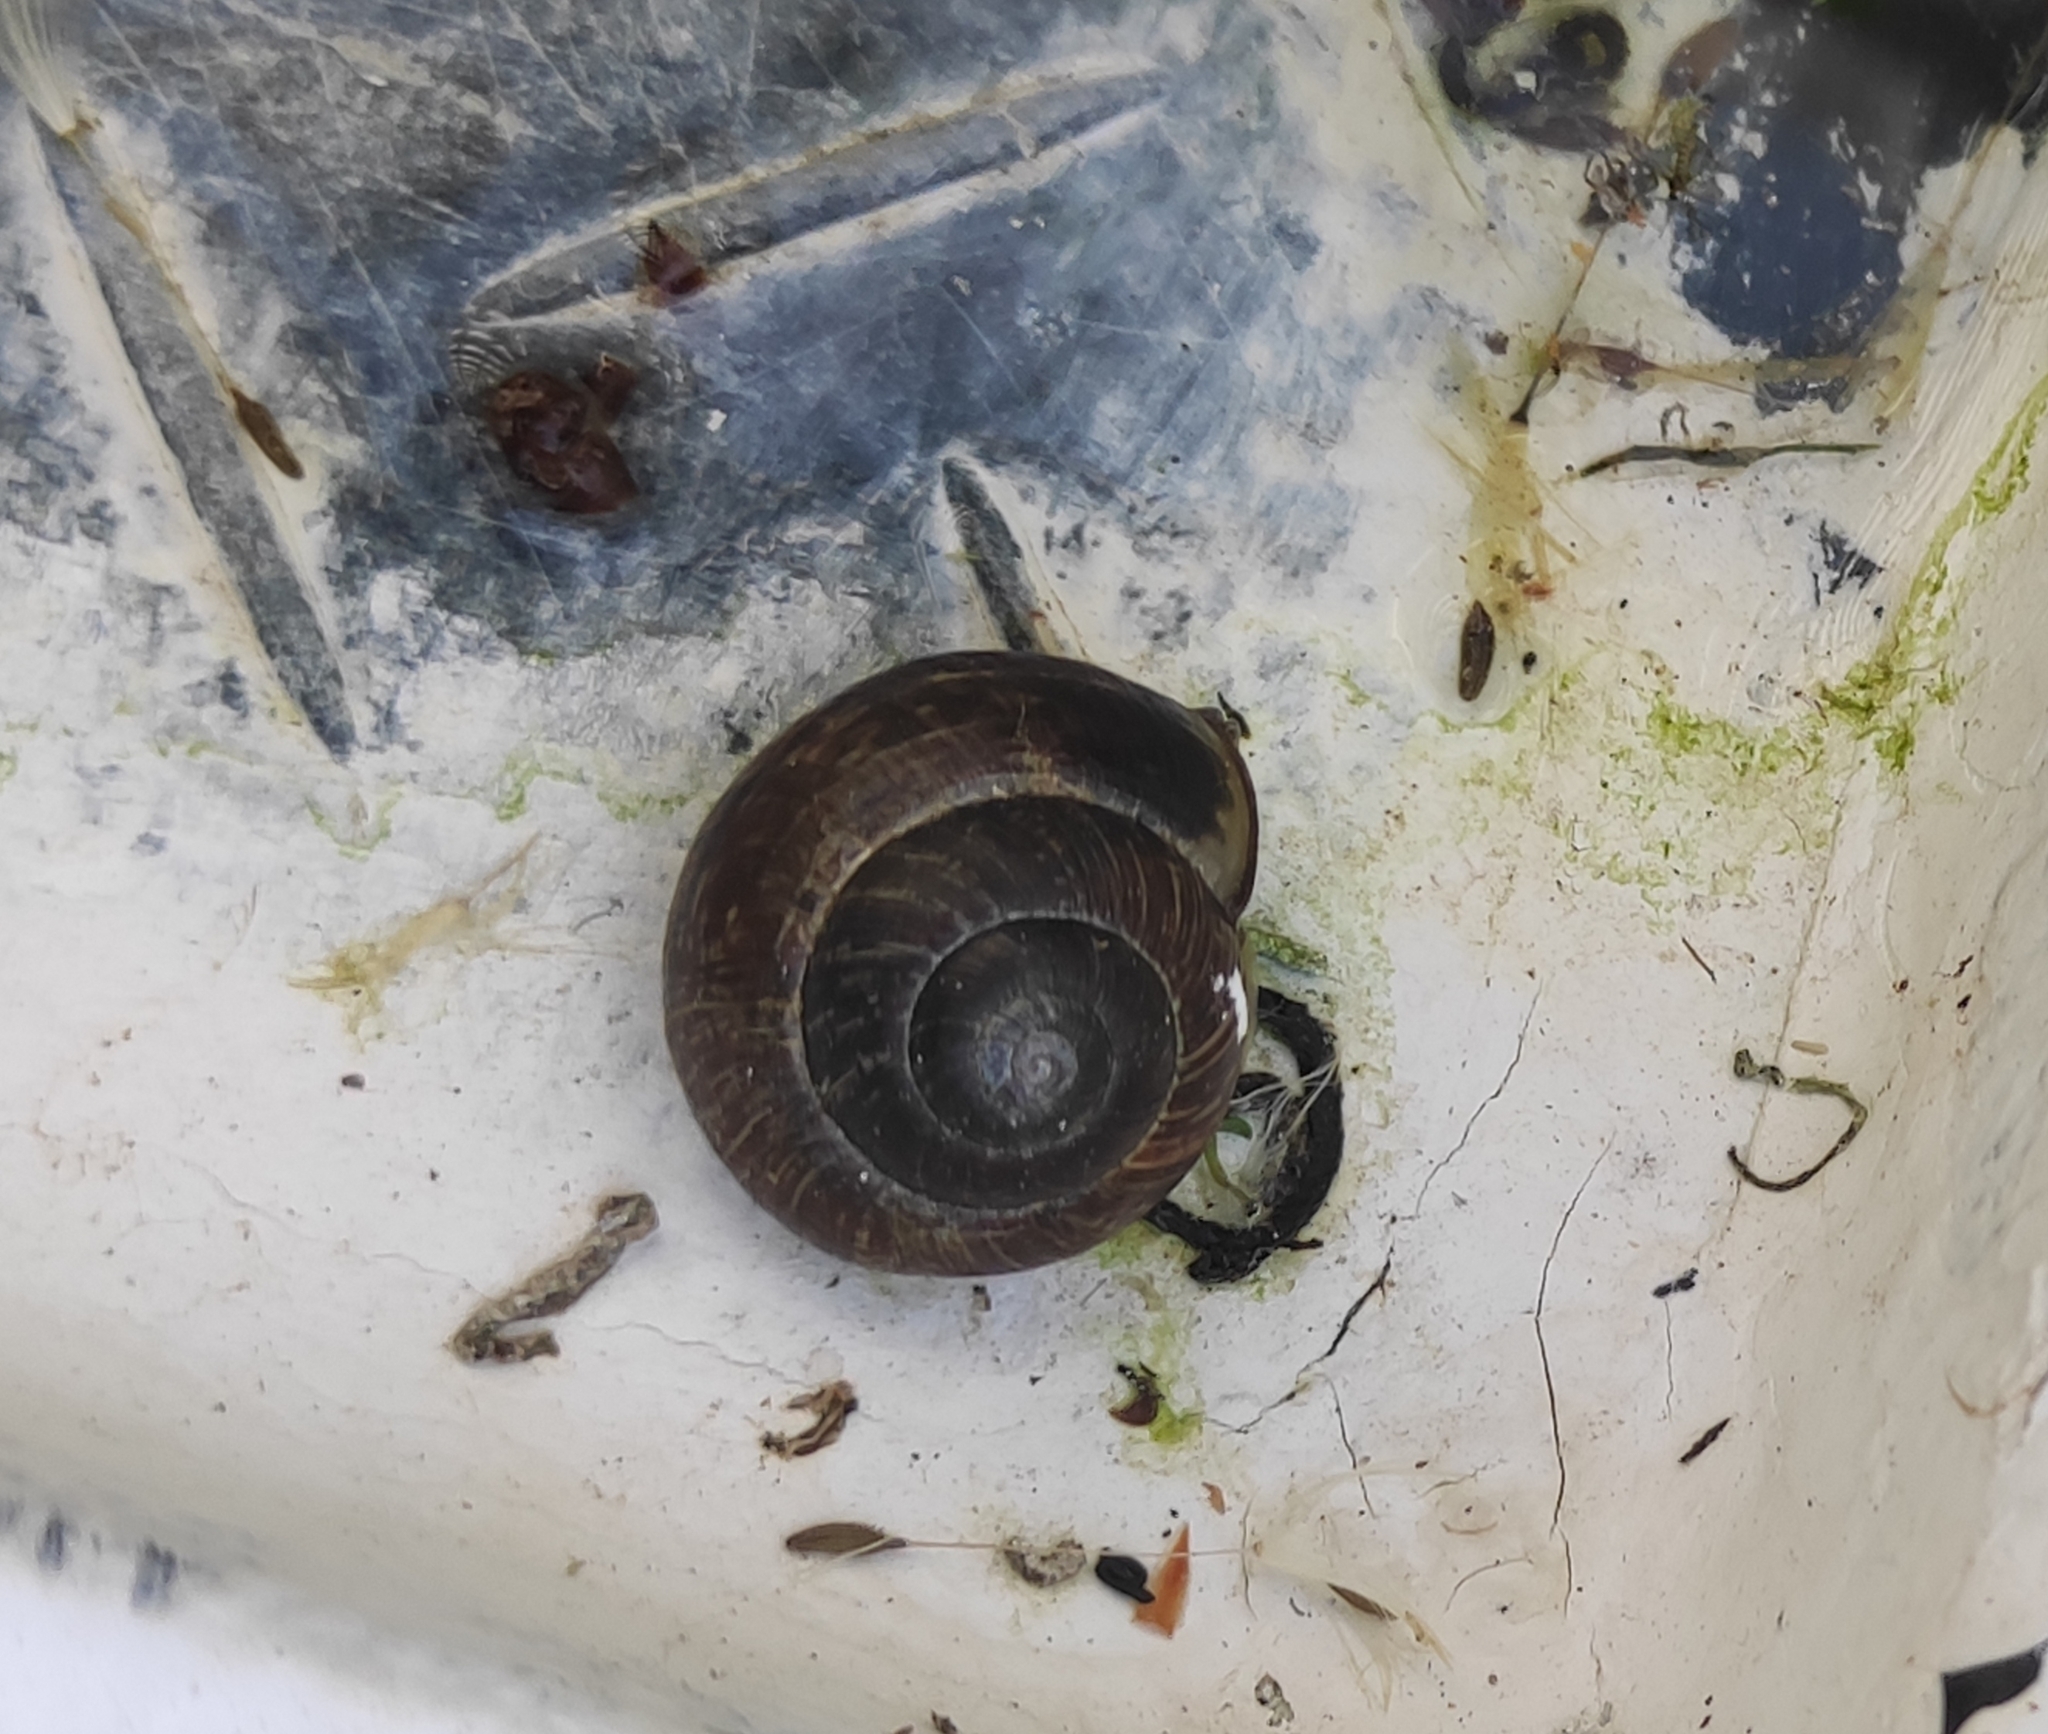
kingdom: Animalia
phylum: Mollusca
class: Gastropoda
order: Stylommatophora
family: Helicidae
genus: Arianta
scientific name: Arianta arbustorum
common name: Copse snail
